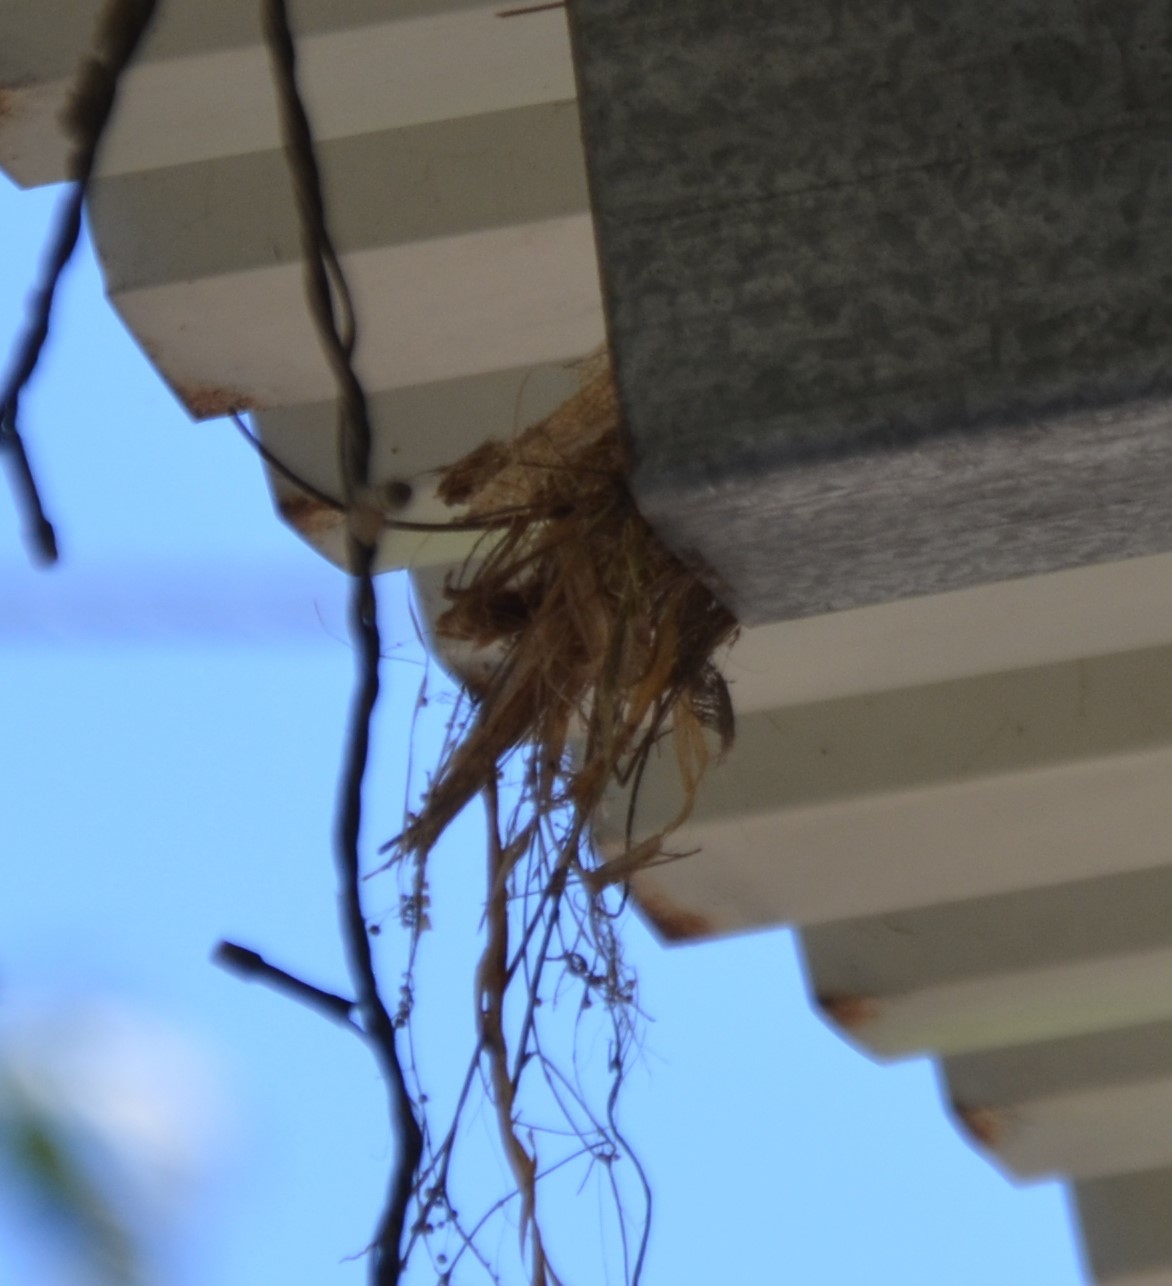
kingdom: Animalia
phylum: Chordata
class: Aves
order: Passeriformes
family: Troglodytidae
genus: Campylorhynchus
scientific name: Campylorhynchus rufinucha
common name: Rufous-naped wren
